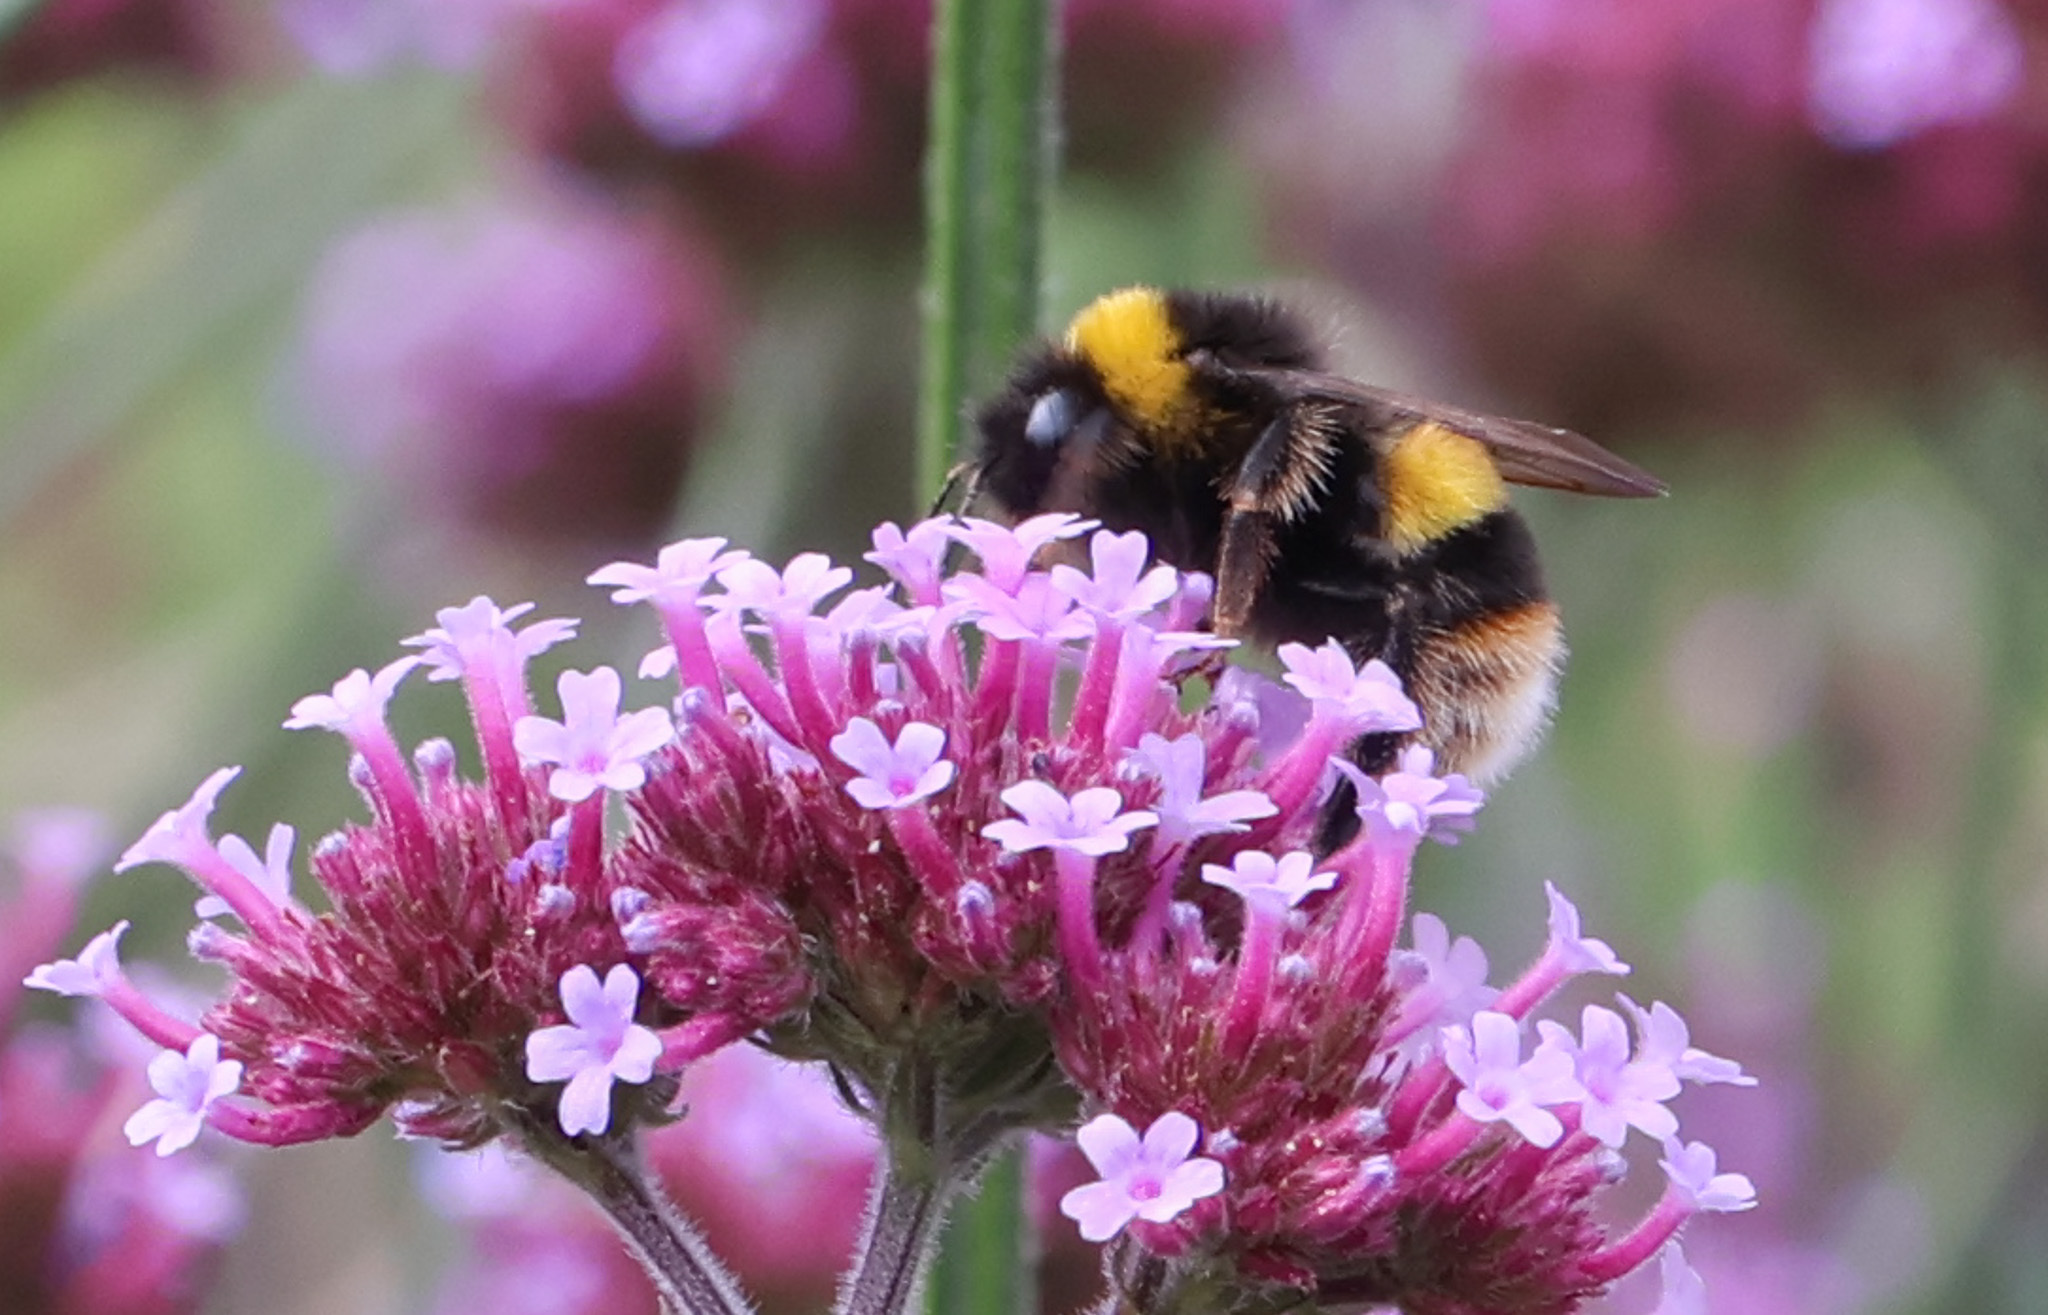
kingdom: Animalia
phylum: Arthropoda
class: Insecta
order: Hymenoptera
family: Apidae
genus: Bombus
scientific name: Bombus terrestris
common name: Buff-tailed bumblebee
